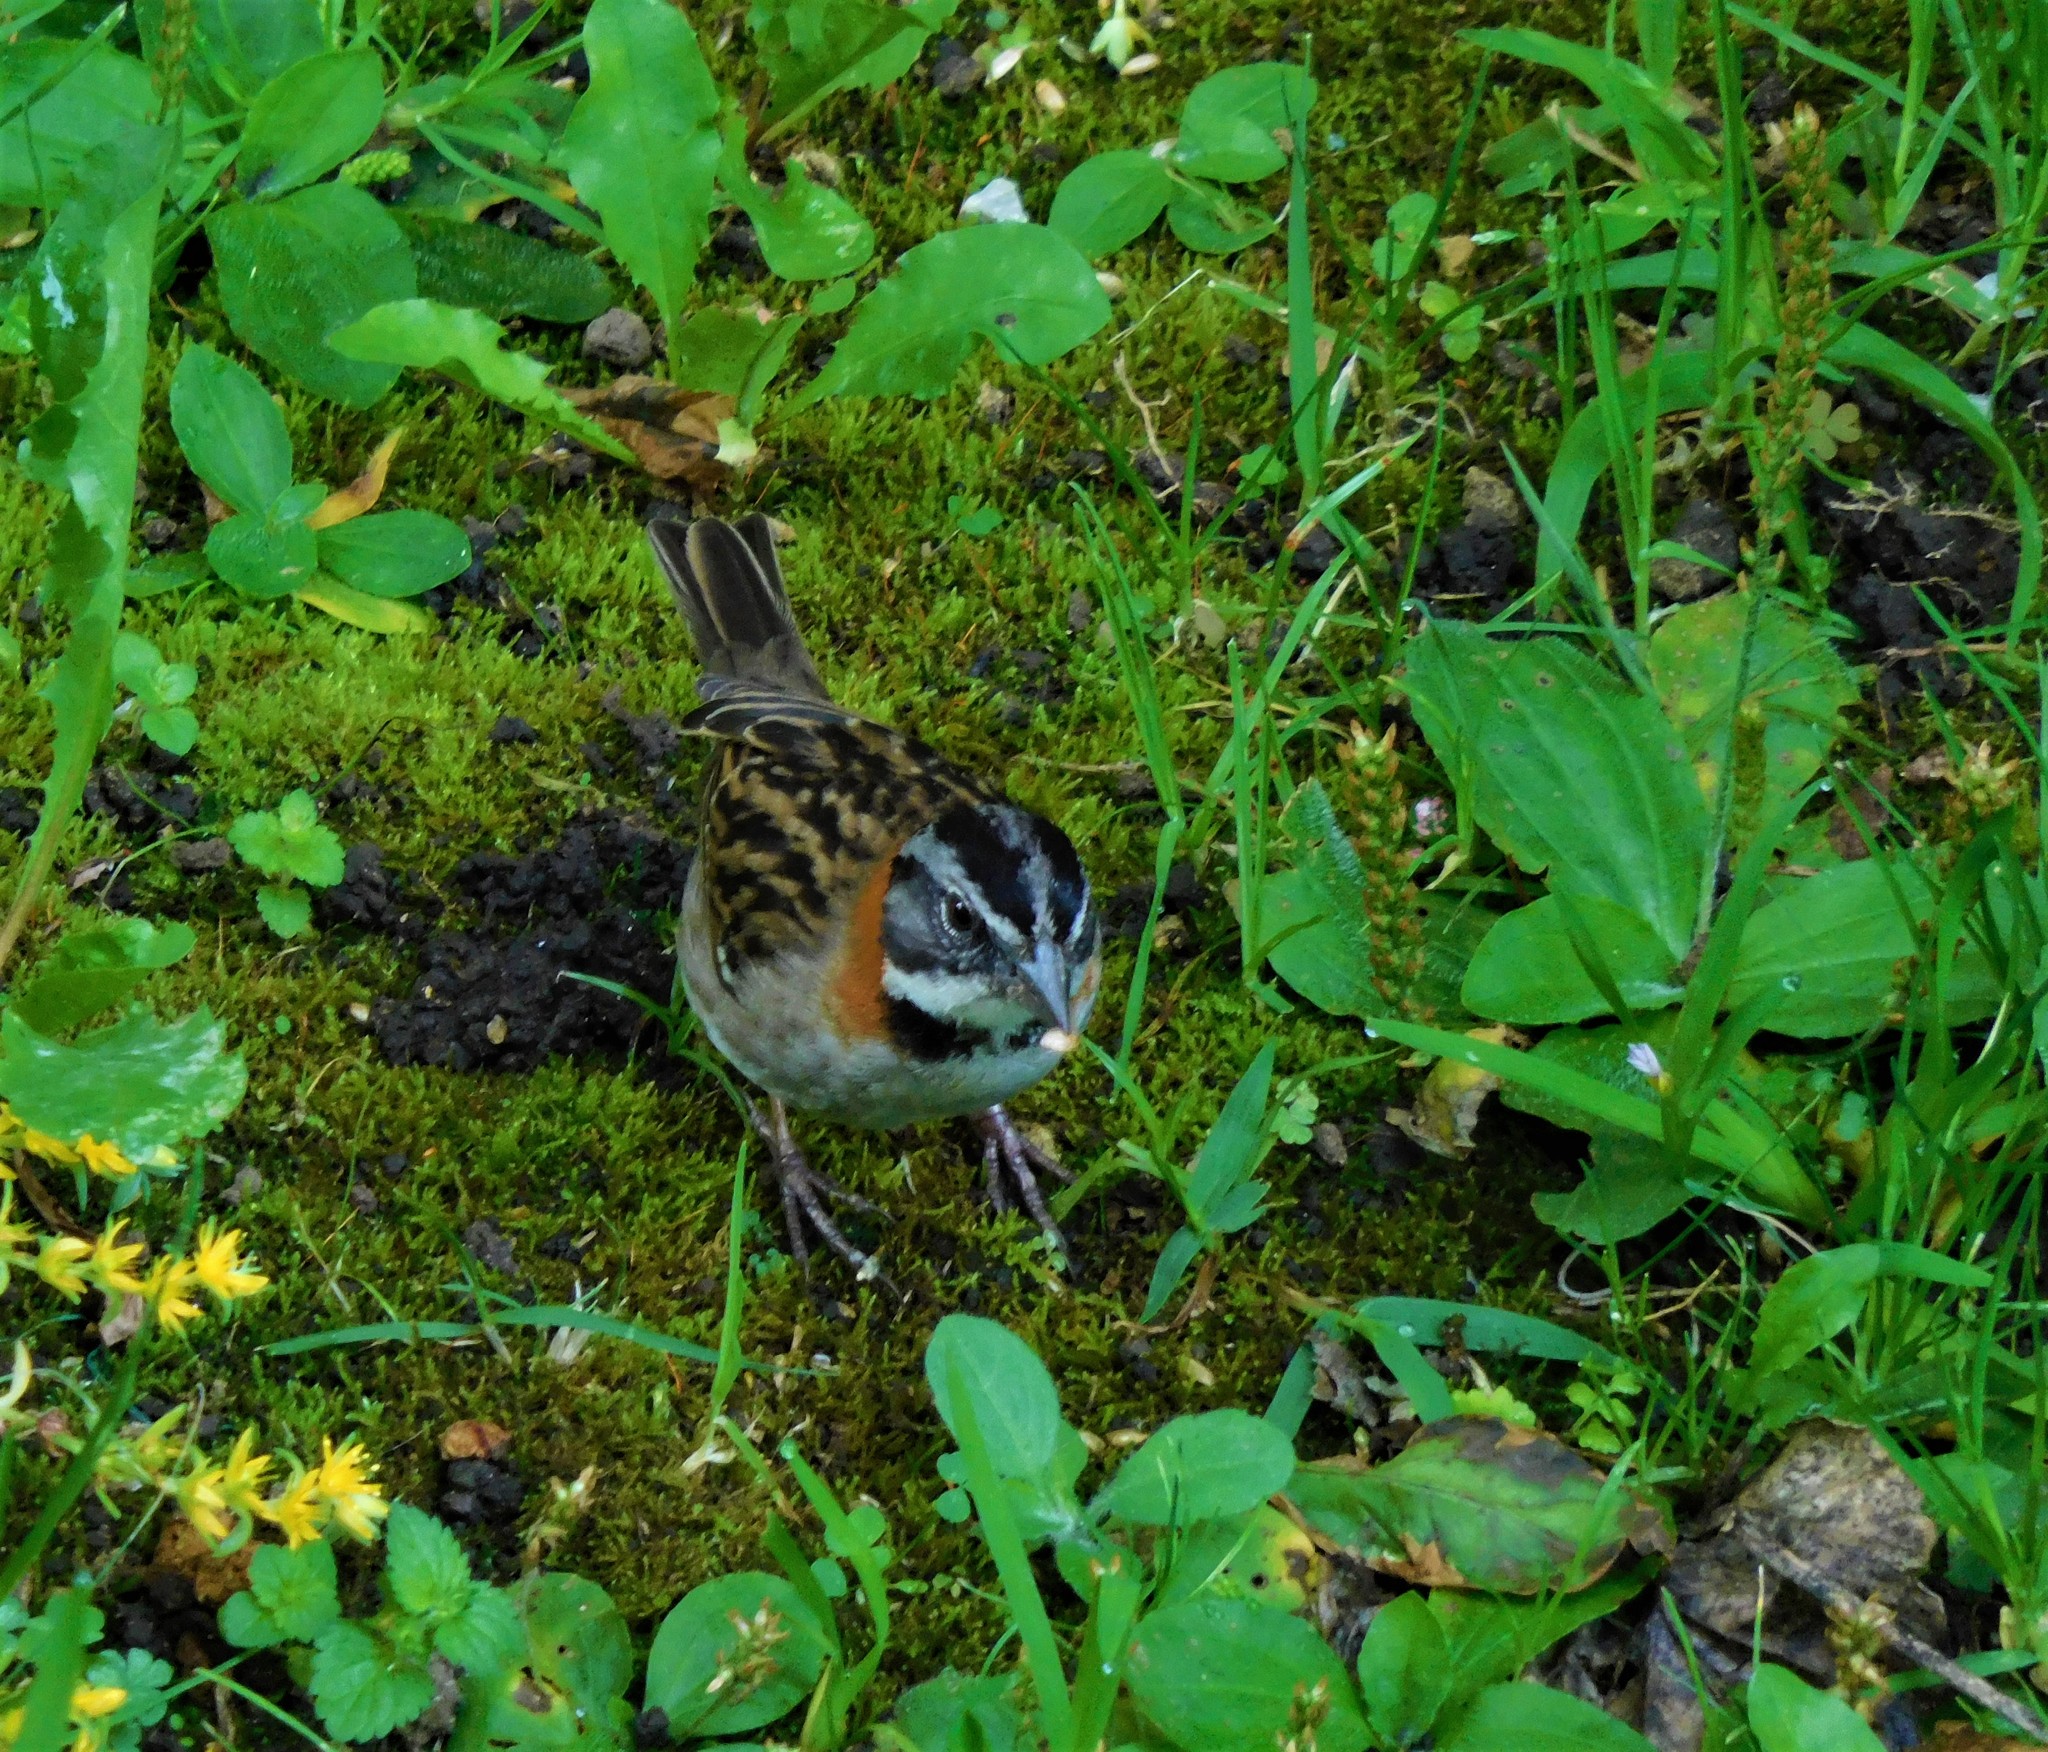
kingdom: Animalia
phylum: Chordata
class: Aves
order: Passeriformes
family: Passerellidae
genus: Zonotrichia
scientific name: Zonotrichia capensis
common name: Rufous-collared sparrow
